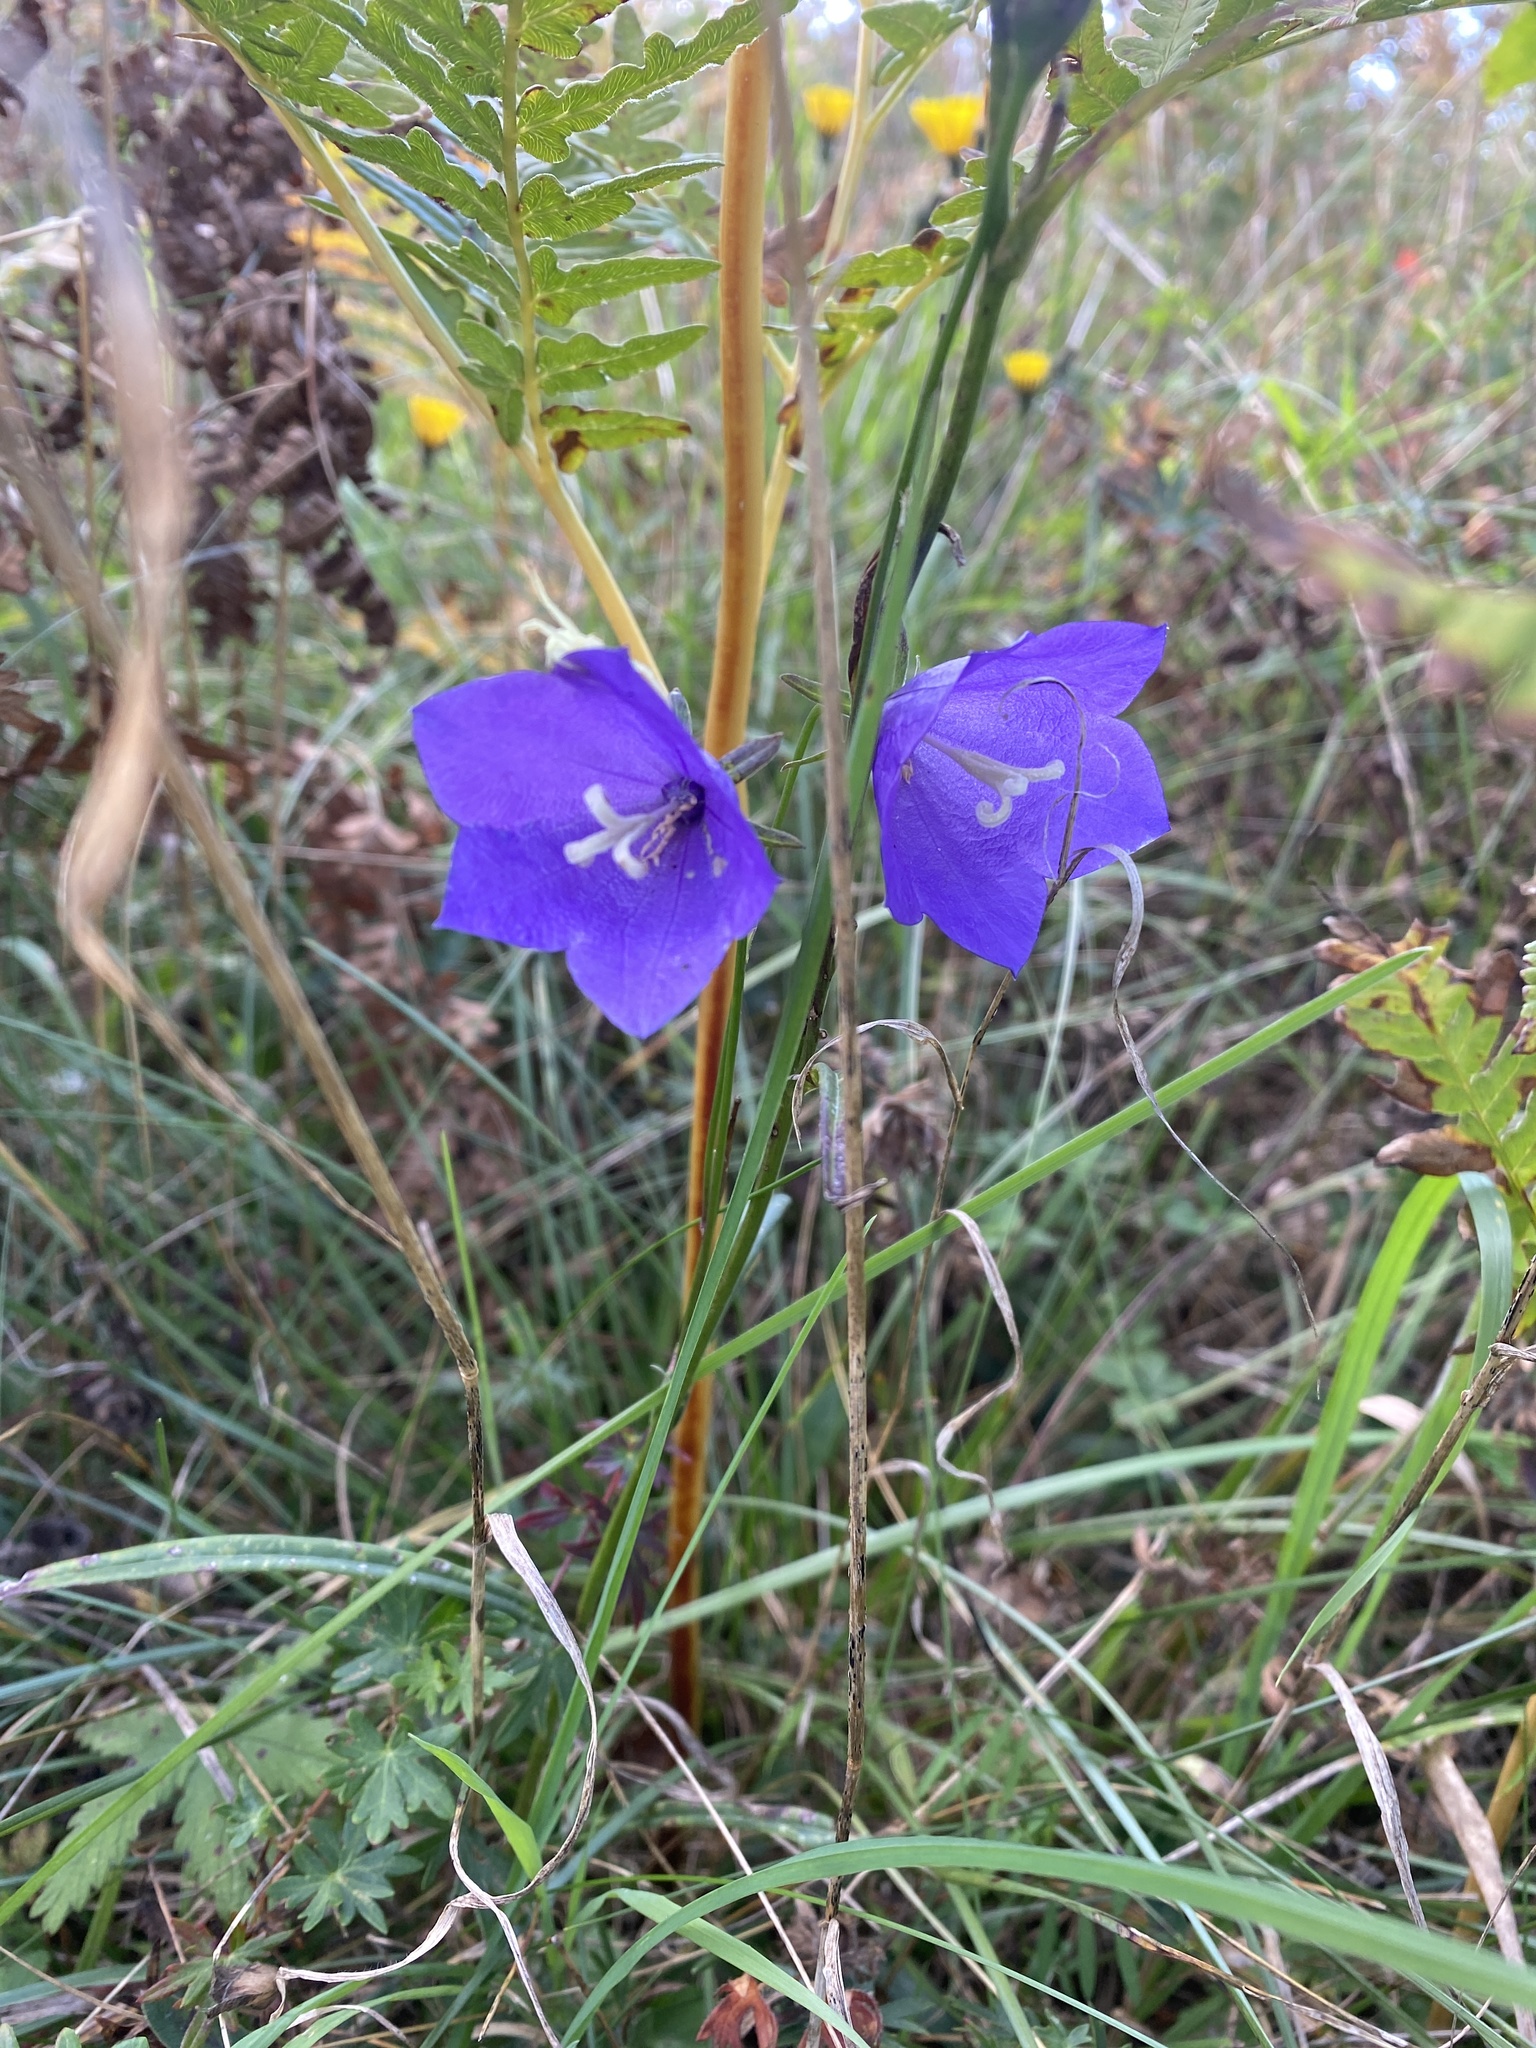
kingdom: Plantae
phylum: Tracheophyta
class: Magnoliopsida
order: Asterales
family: Campanulaceae
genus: Campanula
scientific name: Campanula persicifolia
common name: Peach-leaved bellflower
